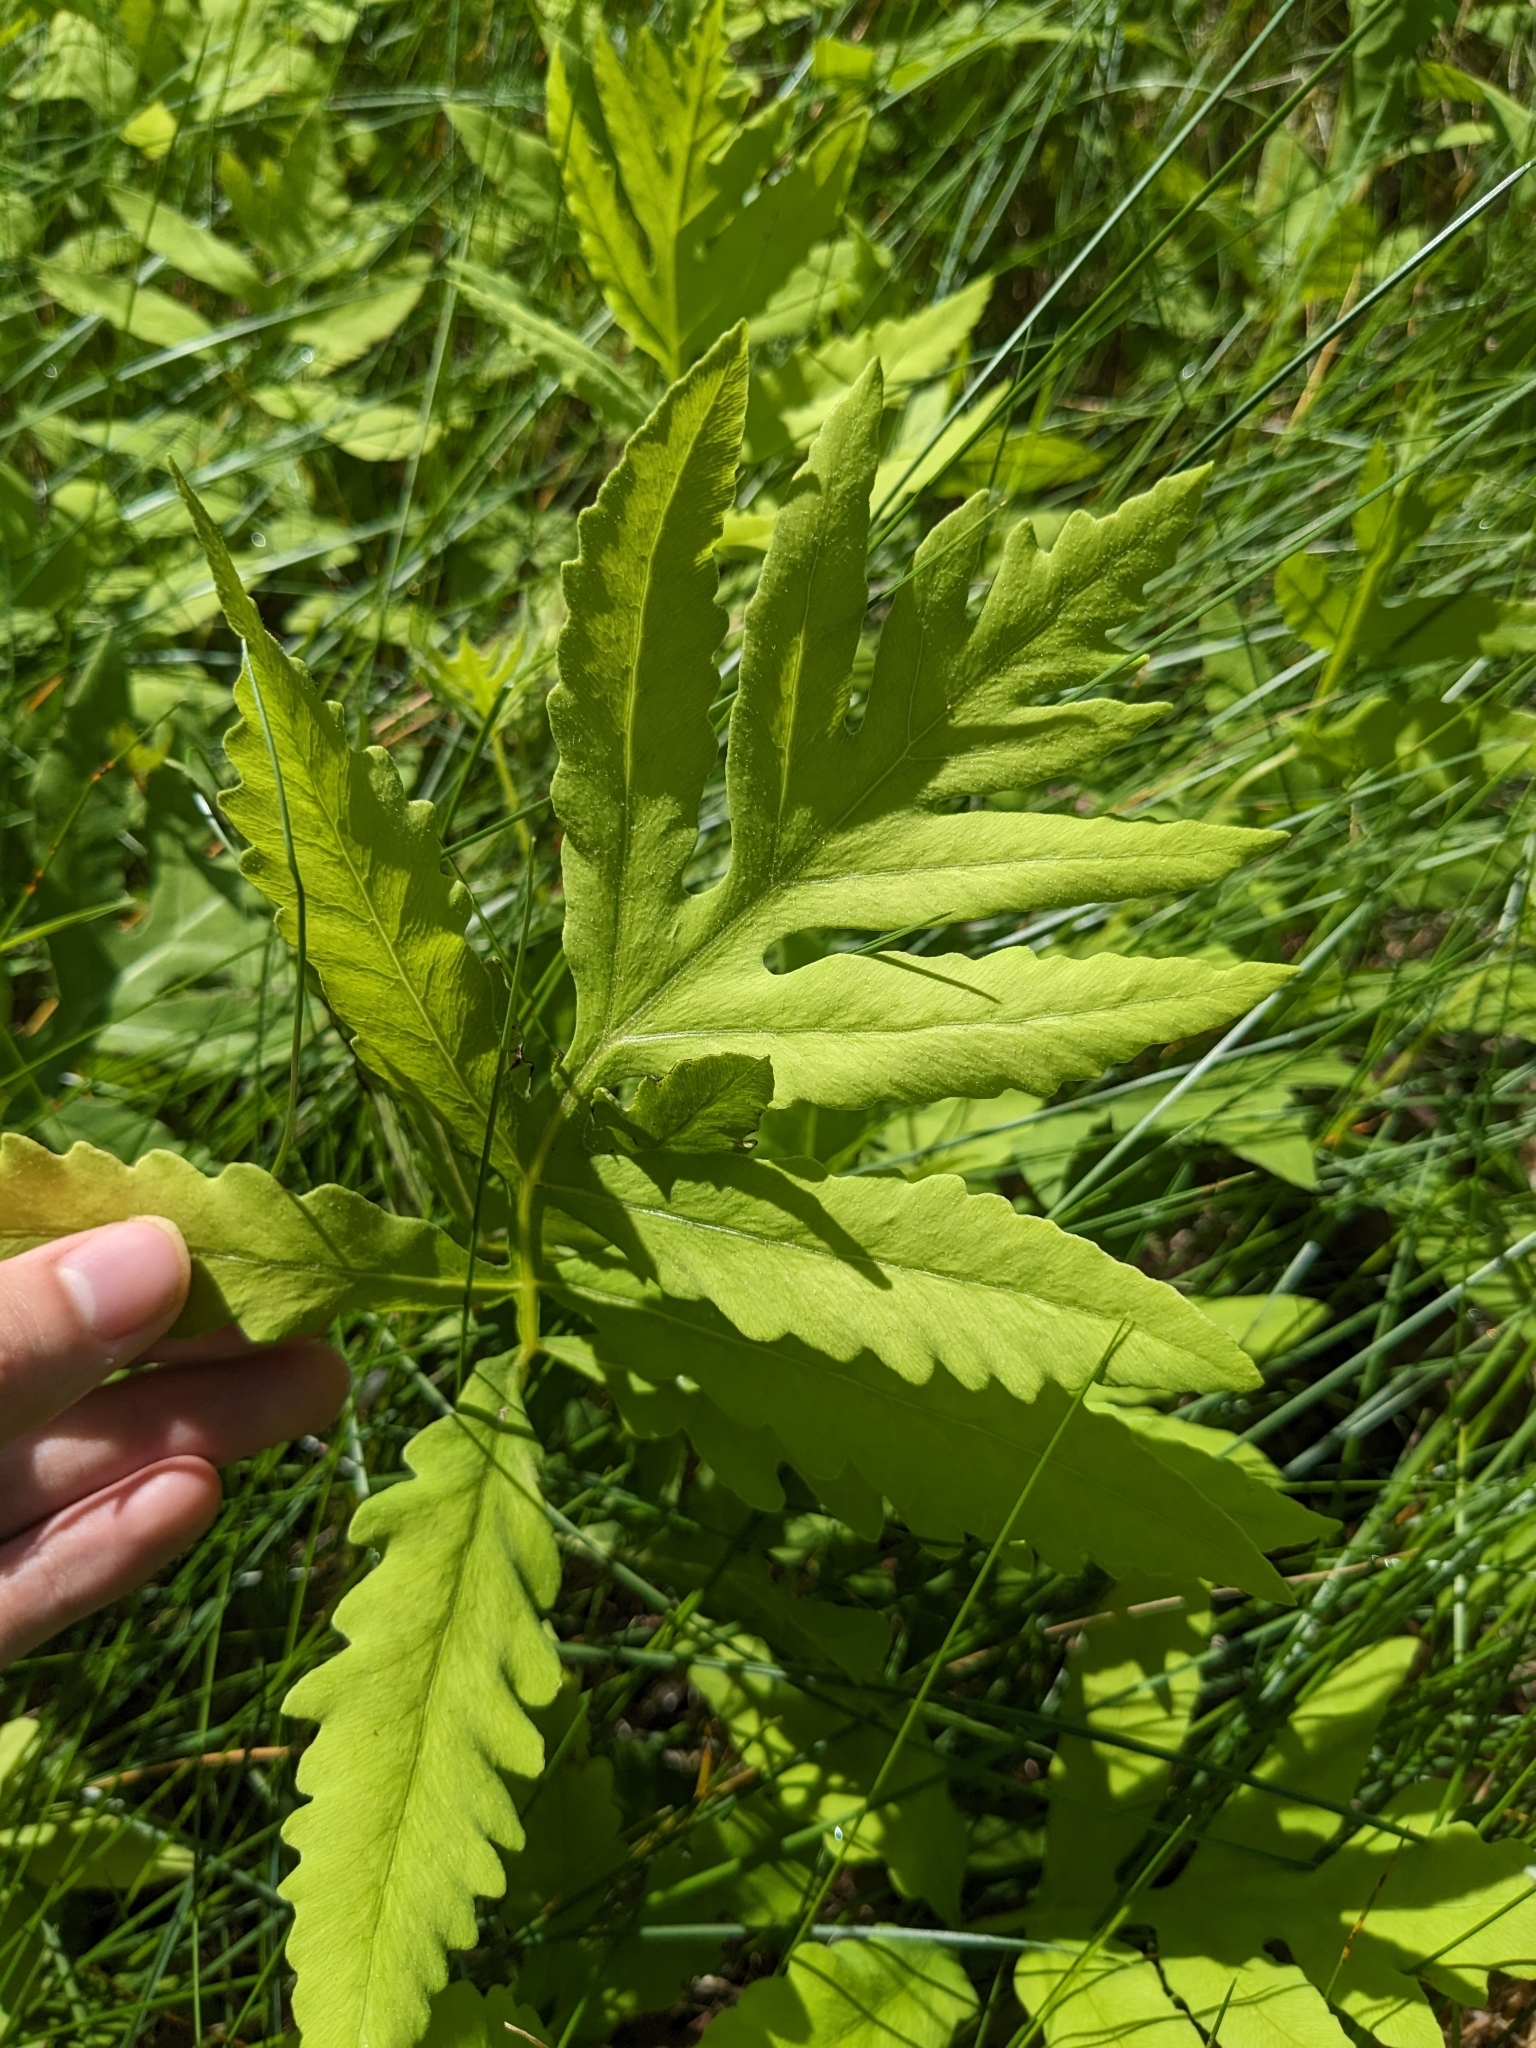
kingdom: Plantae
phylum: Tracheophyta
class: Polypodiopsida
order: Polypodiales
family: Onocleaceae
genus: Onoclea
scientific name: Onoclea sensibilis
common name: Sensitive fern
